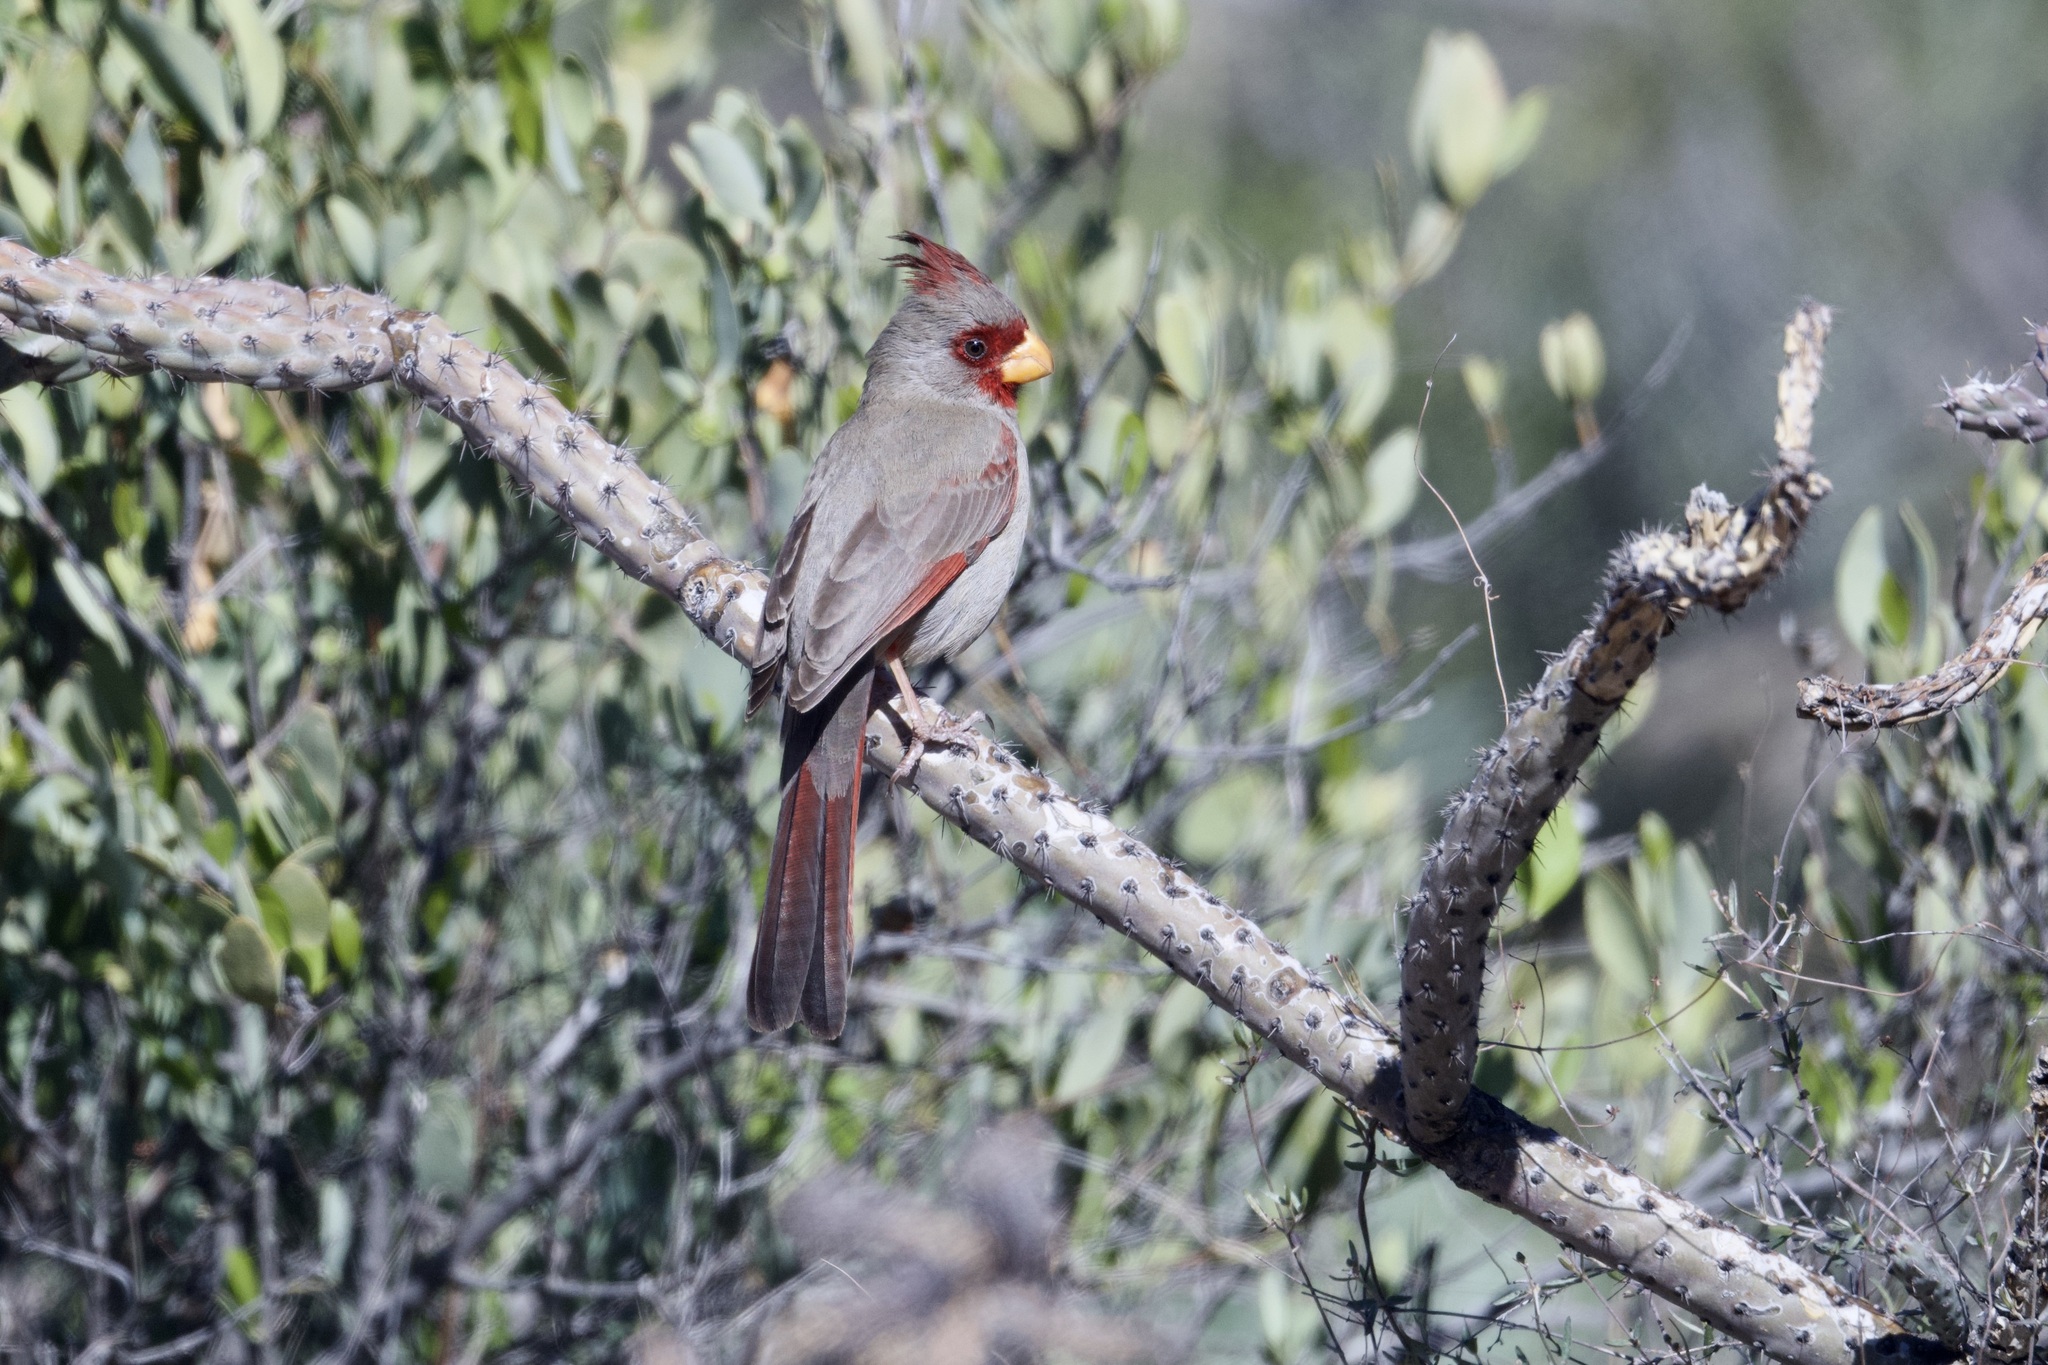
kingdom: Animalia
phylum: Chordata
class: Aves
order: Passeriformes
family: Cardinalidae
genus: Cardinalis
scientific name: Cardinalis sinuatus
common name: Pyrrhuloxia
